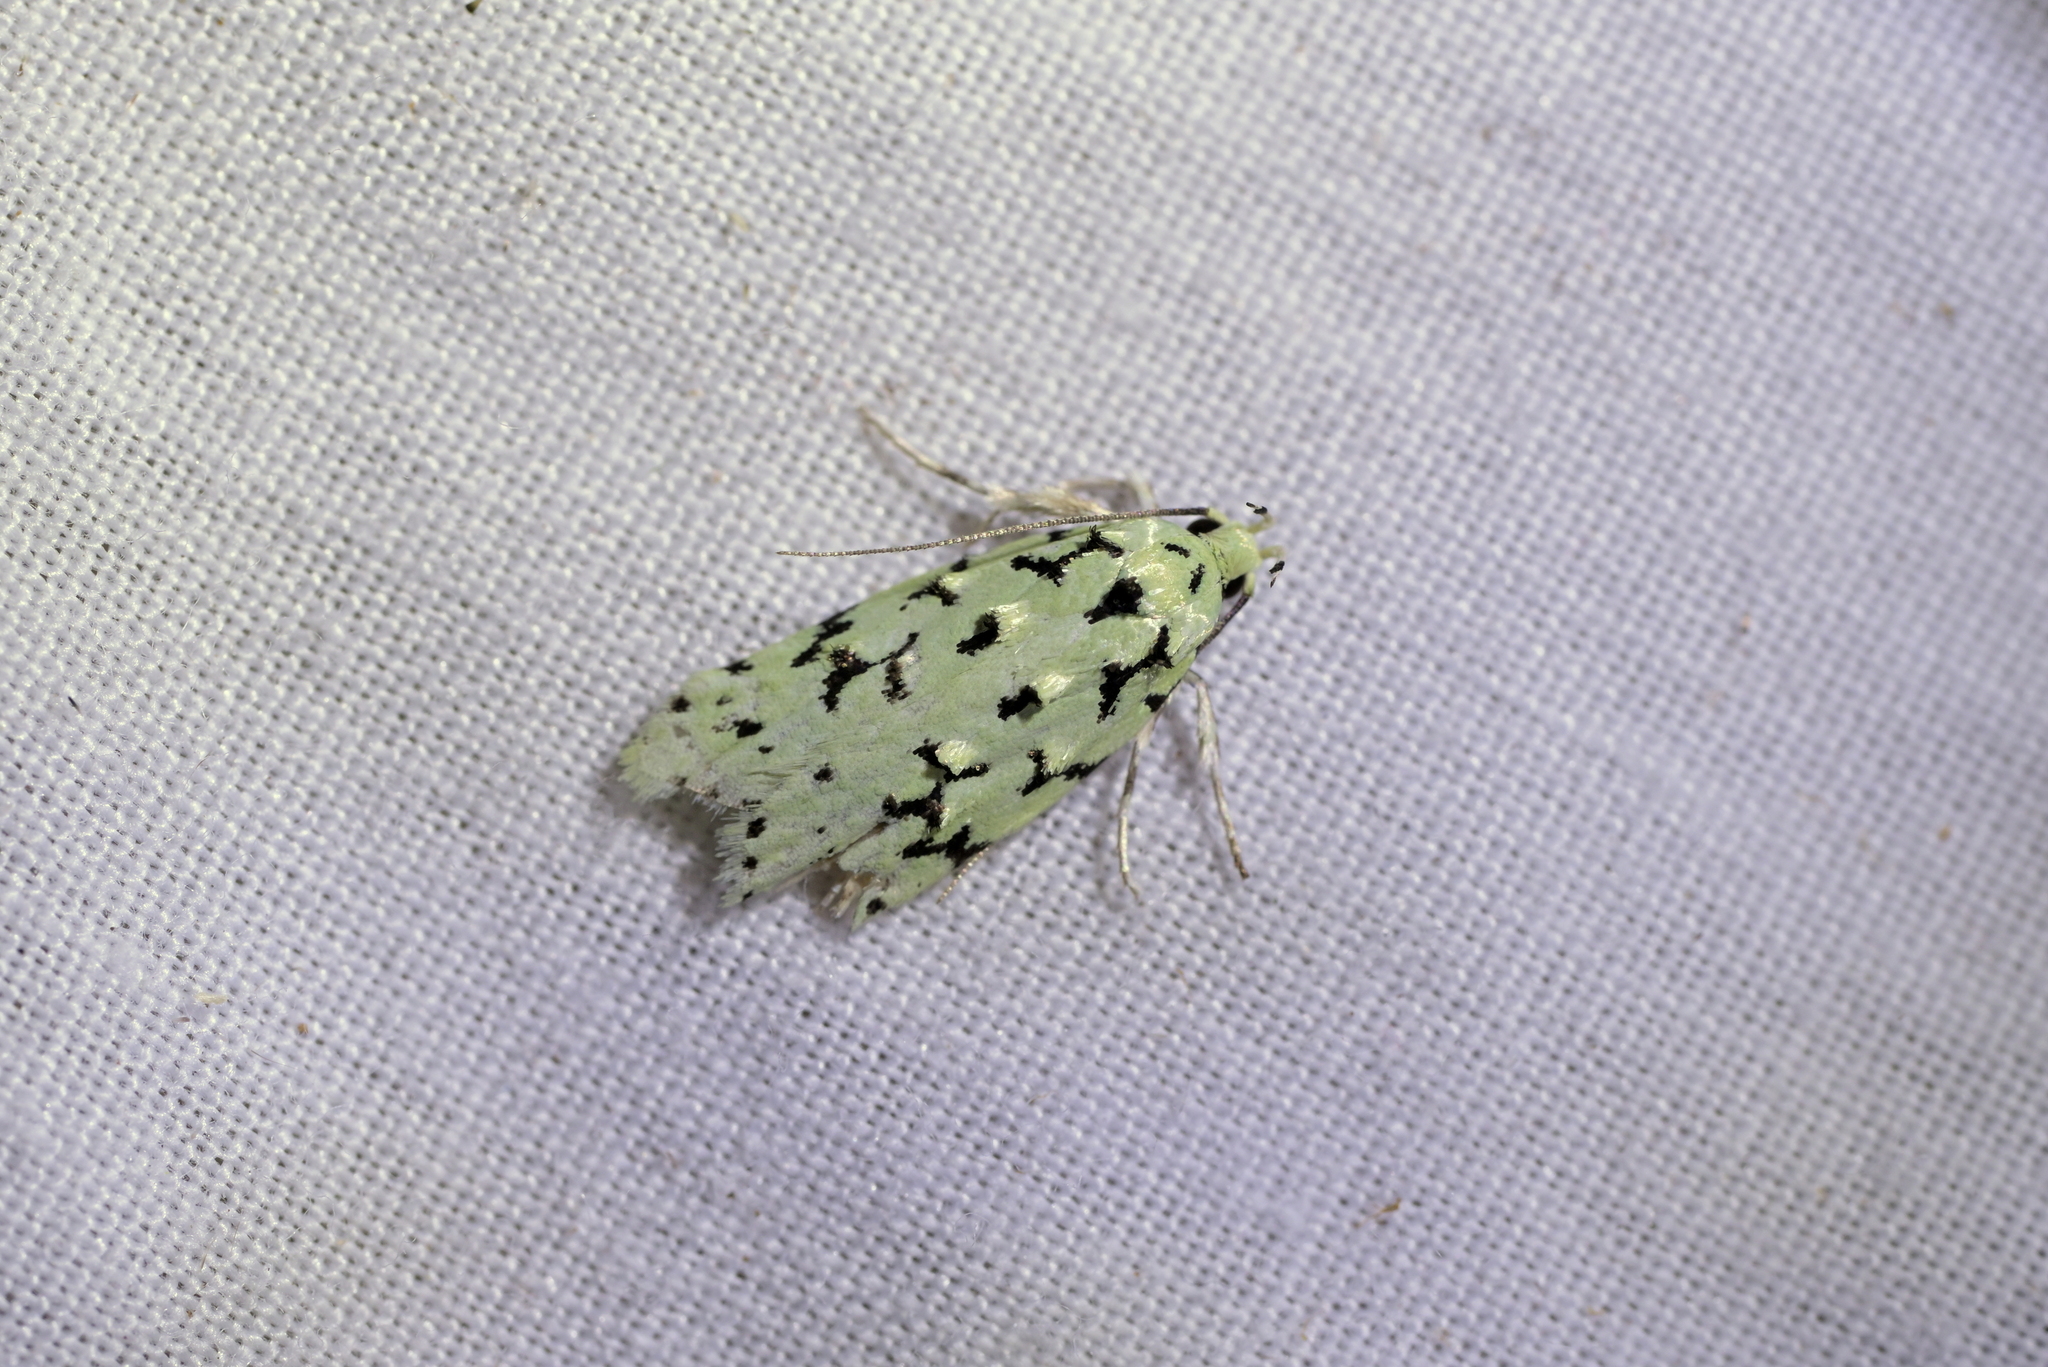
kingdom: Animalia
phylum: Arthropoda
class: Insecta
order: Lepidoptera
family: Oecophoridae
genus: Izatha
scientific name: Izatha huttoni
